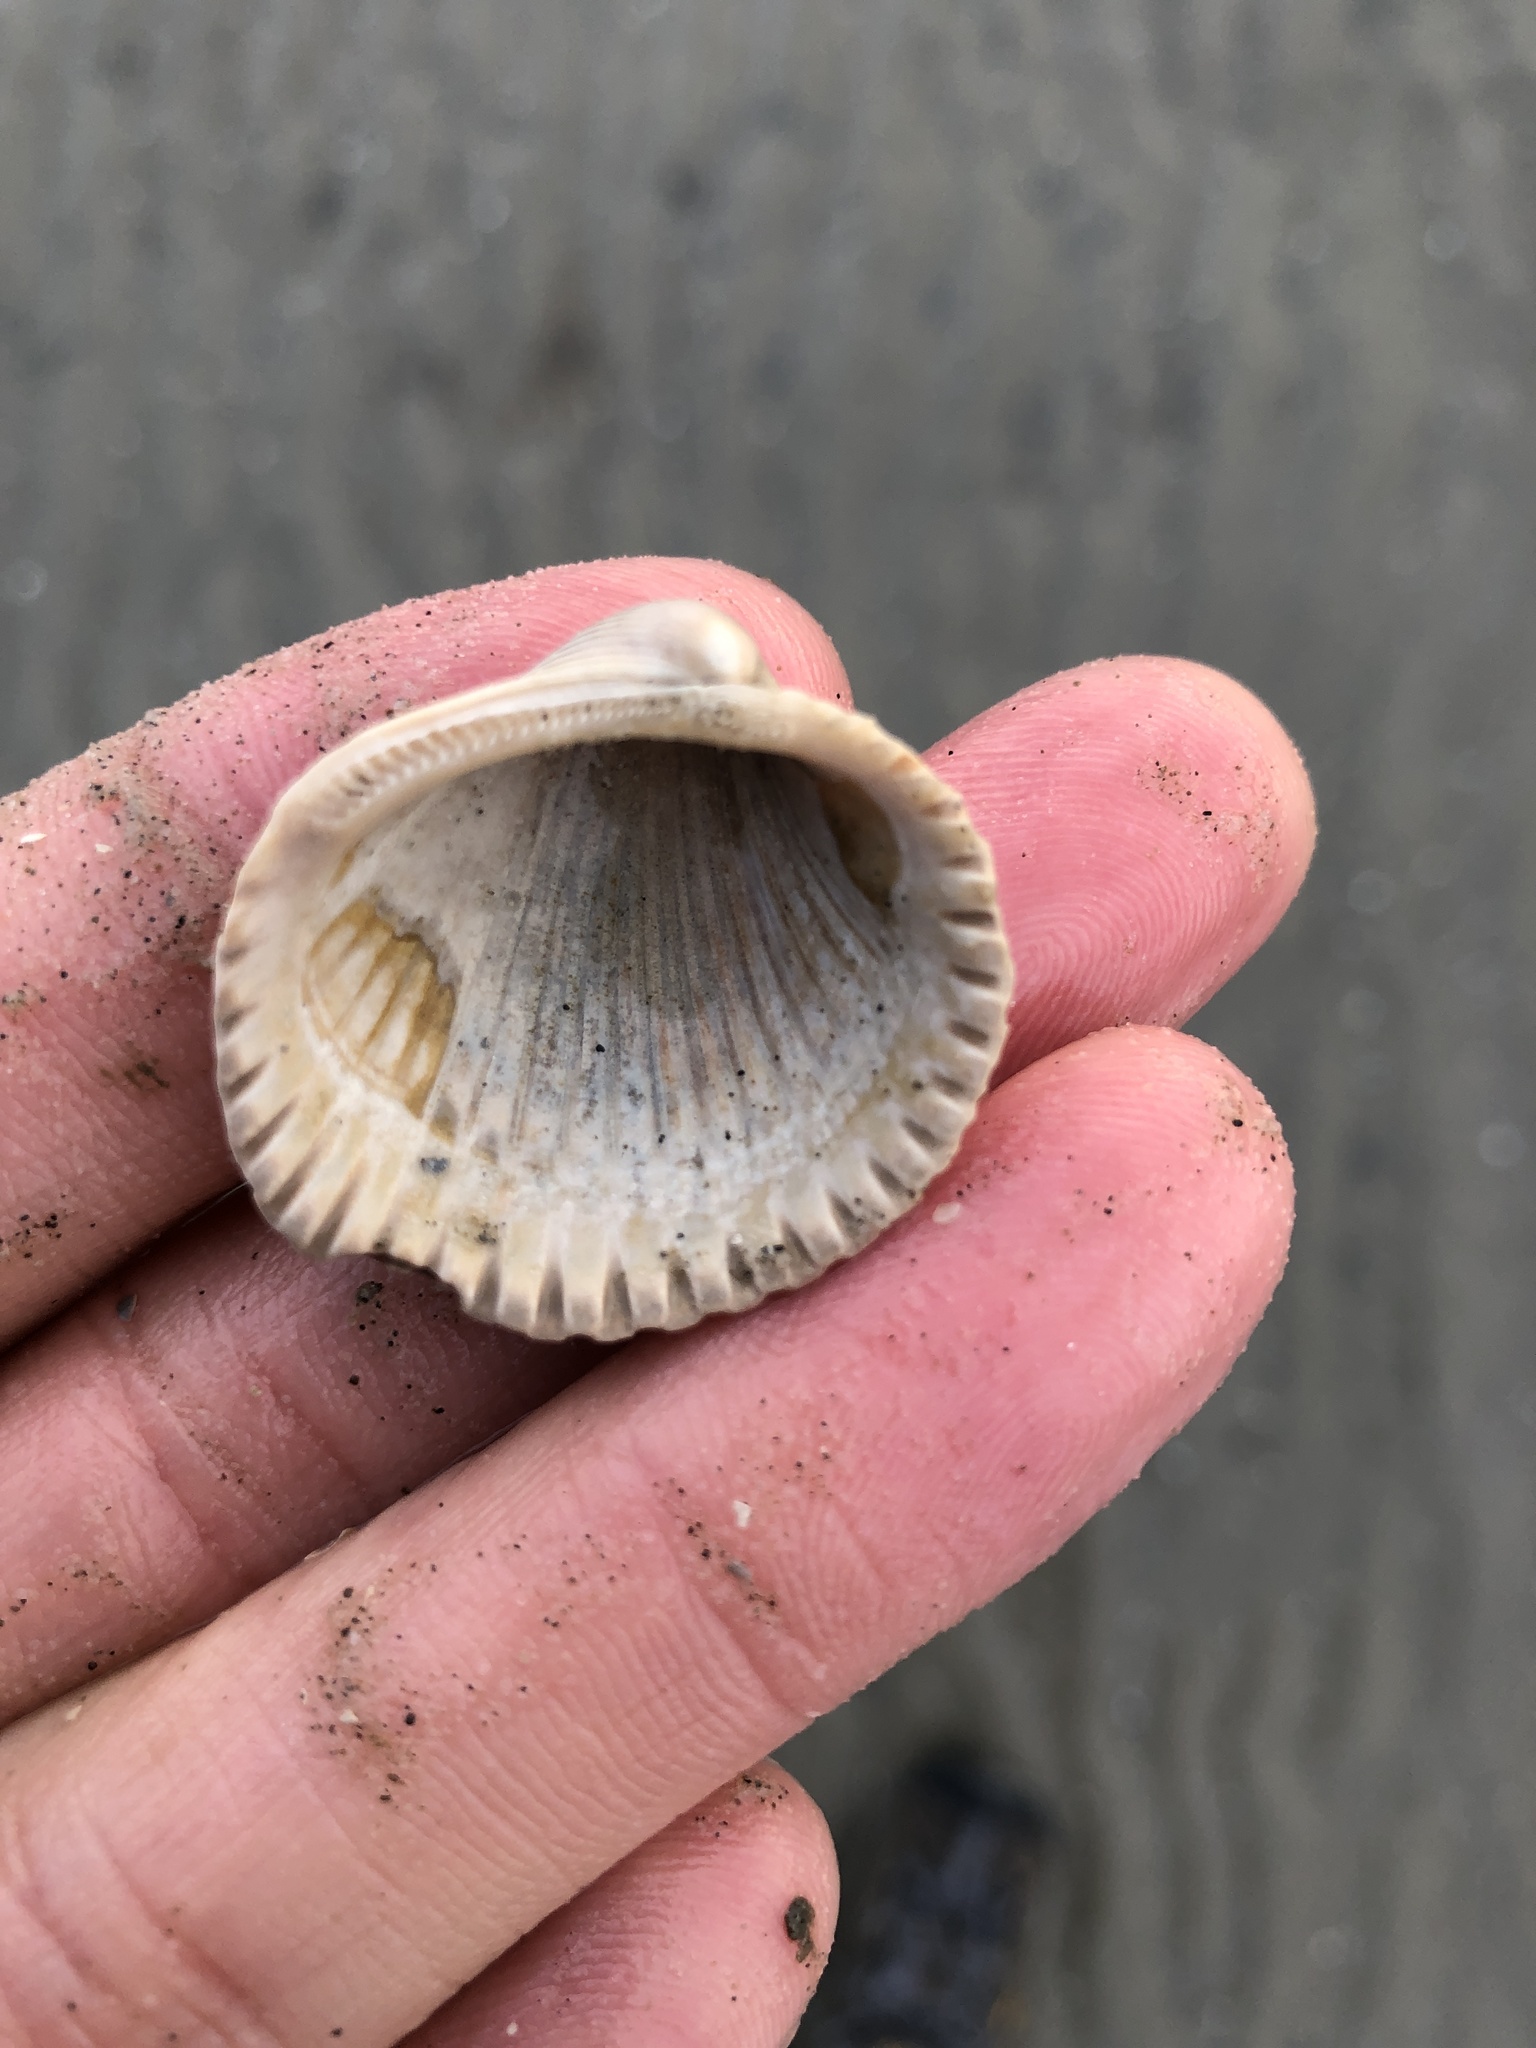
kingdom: Animalia
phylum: Mollusca
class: Bivalvia
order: Arcida
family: Arcidae
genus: Lunarca
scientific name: Lunarca ovalis
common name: Blood ark
